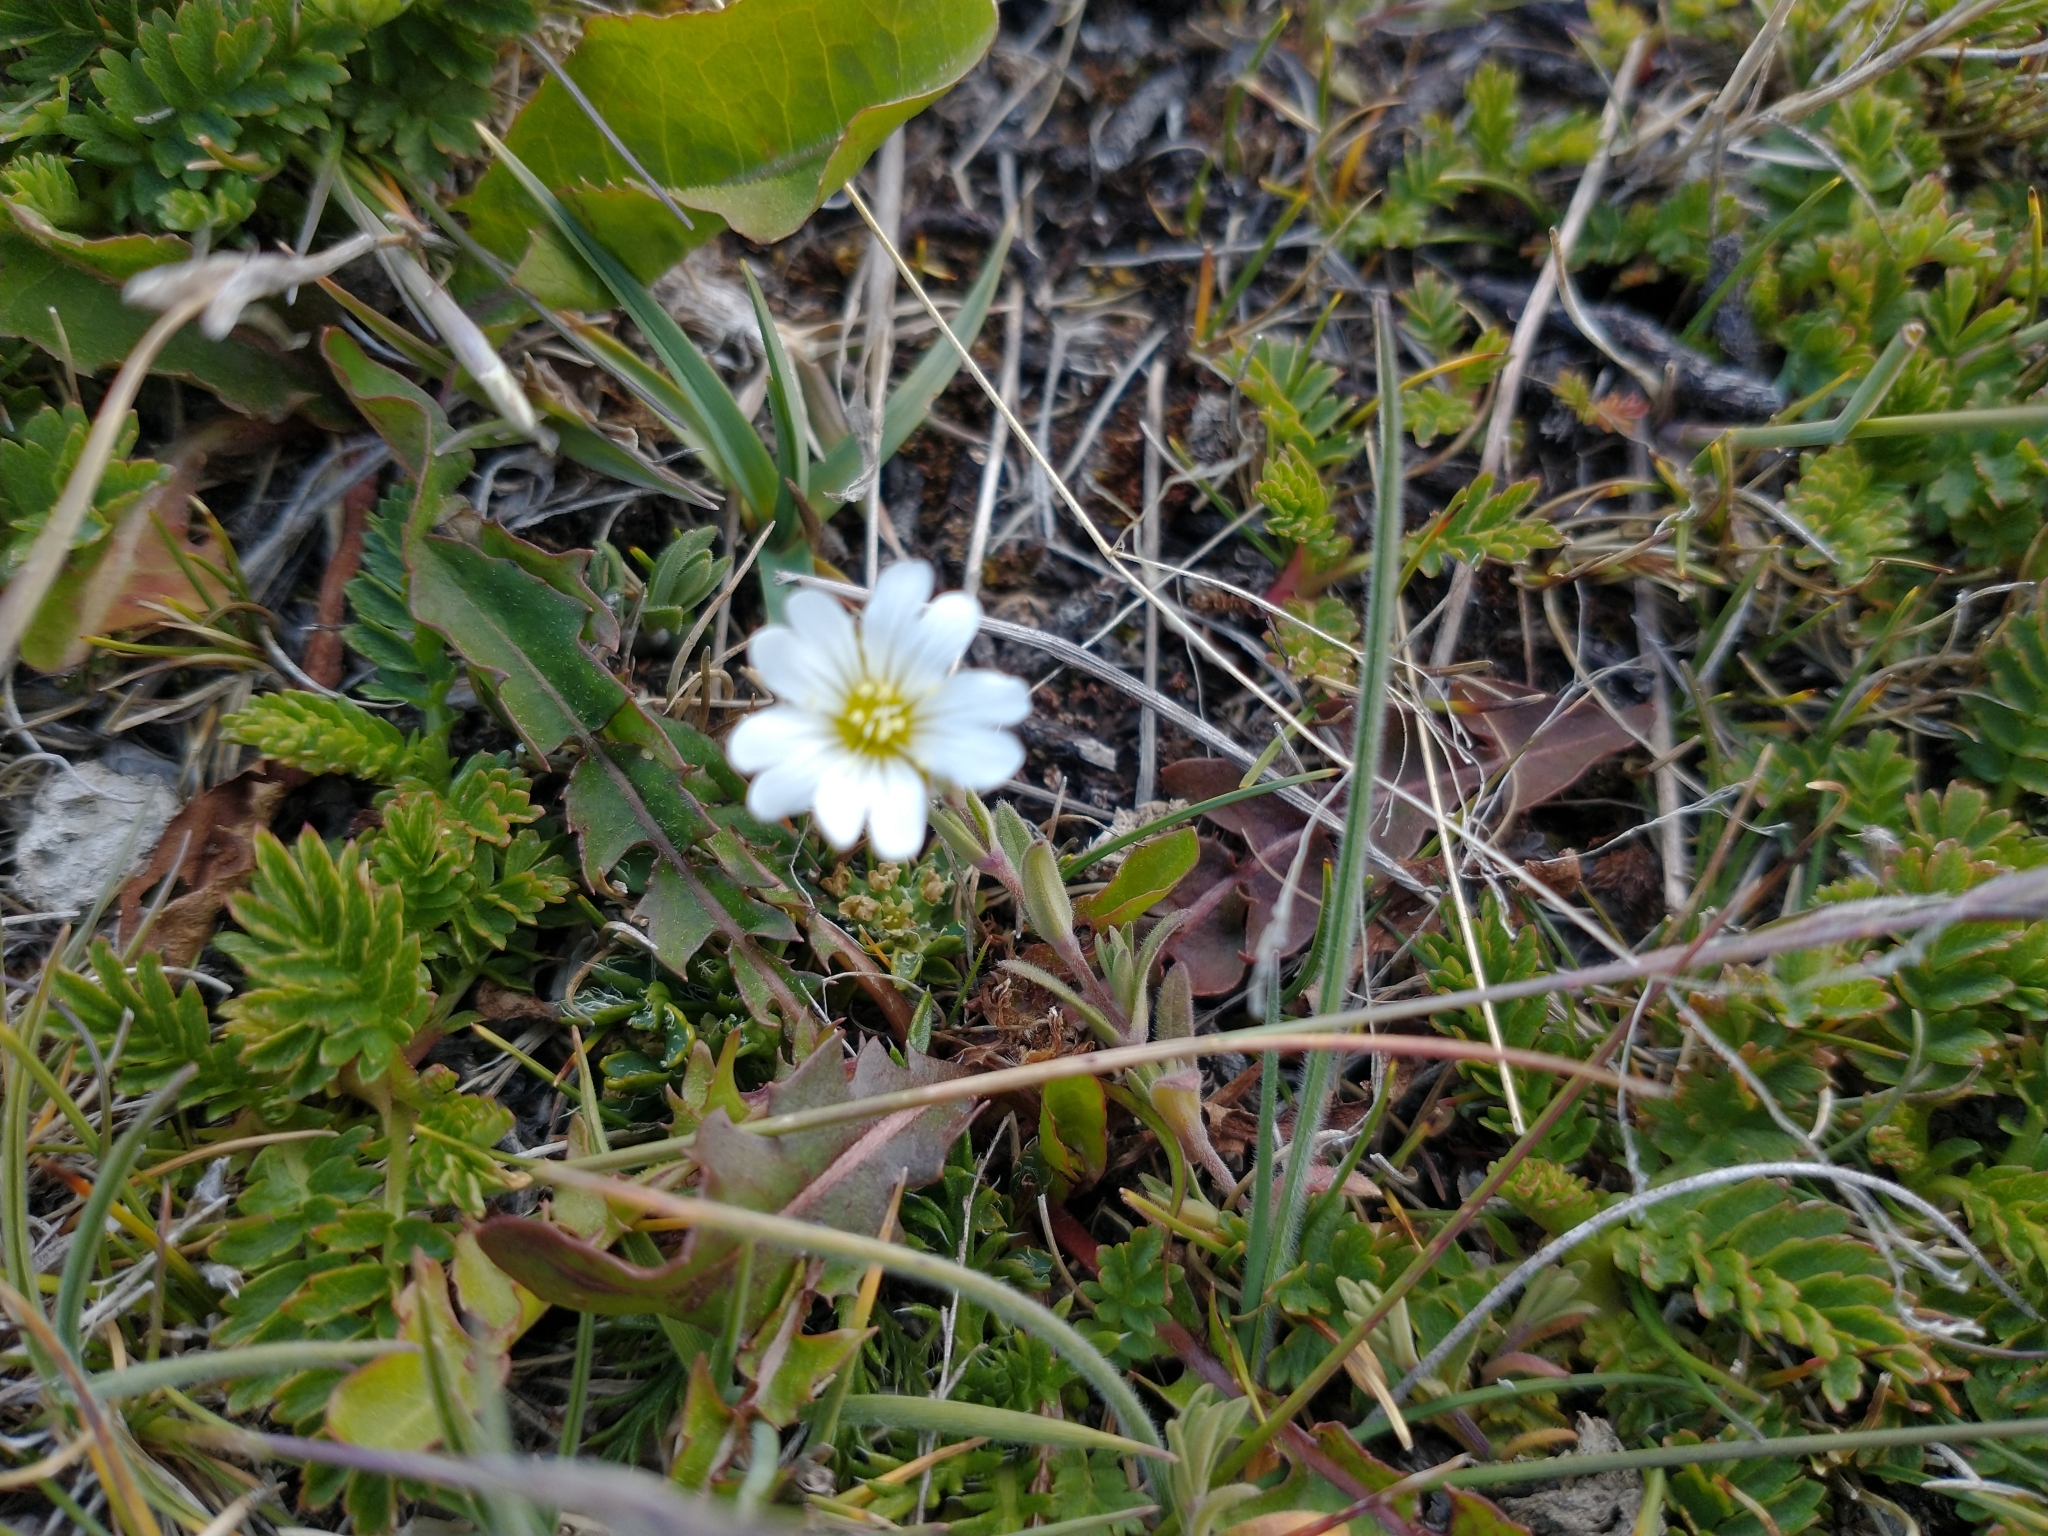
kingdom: Plantae
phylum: Tracheophyta
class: Magnoliopsida
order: Caryophyllales
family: Caryophyllaceae
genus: Cerastium
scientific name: Cerastium arvense
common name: Field mouse-ear
